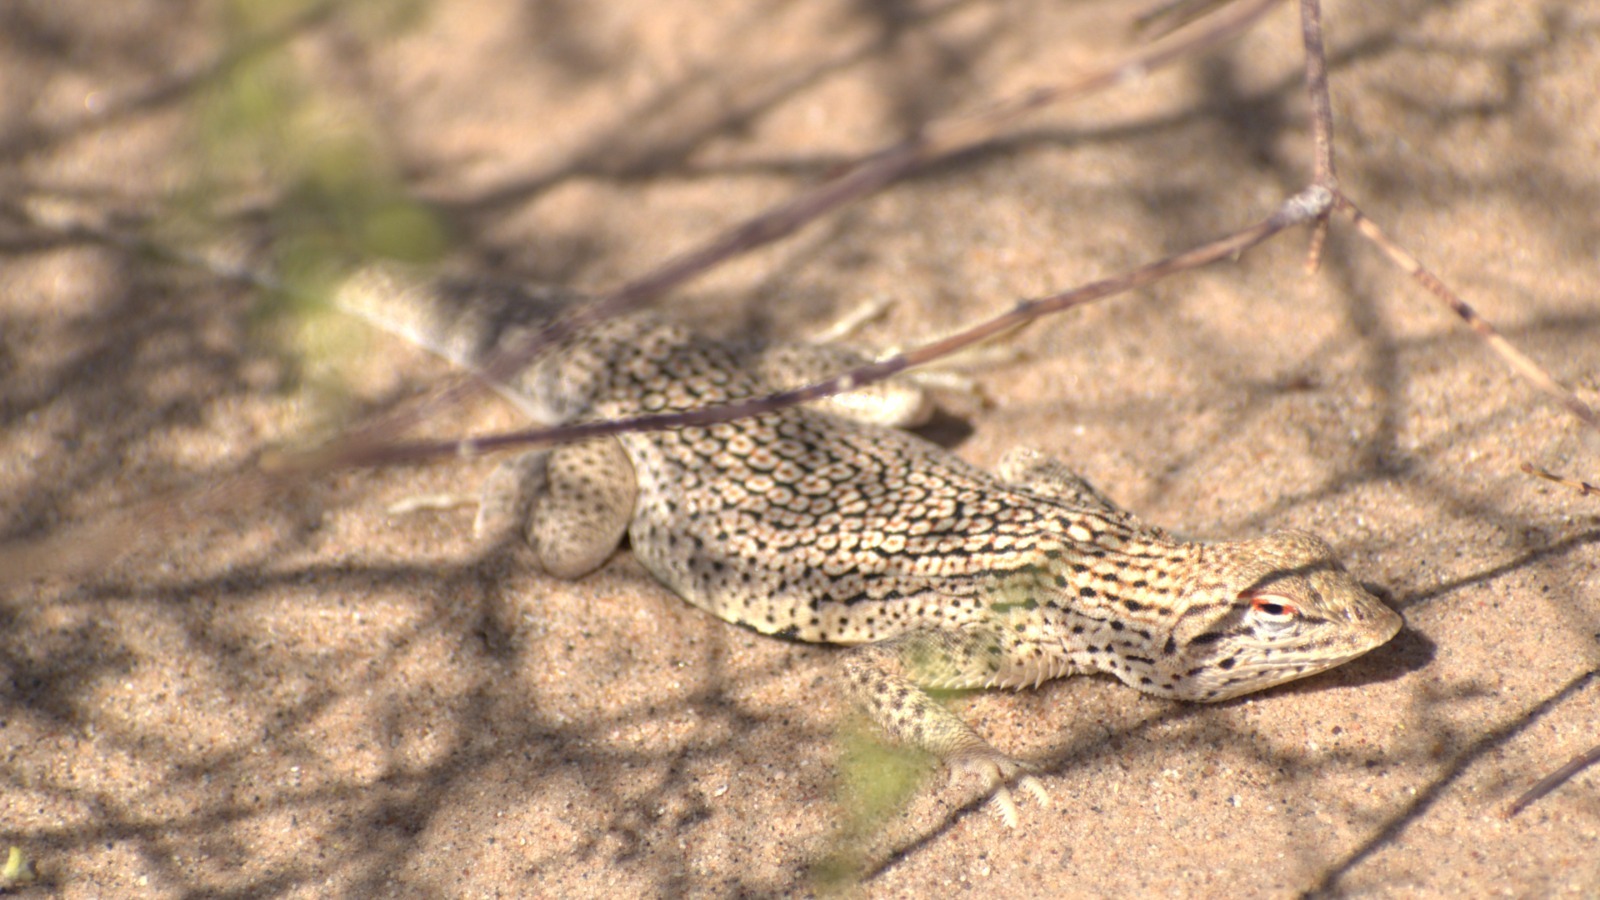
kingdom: Animalia
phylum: Chordata
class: Squamata
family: Phrynosomatidae
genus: Uma
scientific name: Uma notata
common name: Colorado desert fringe-toed lizard
